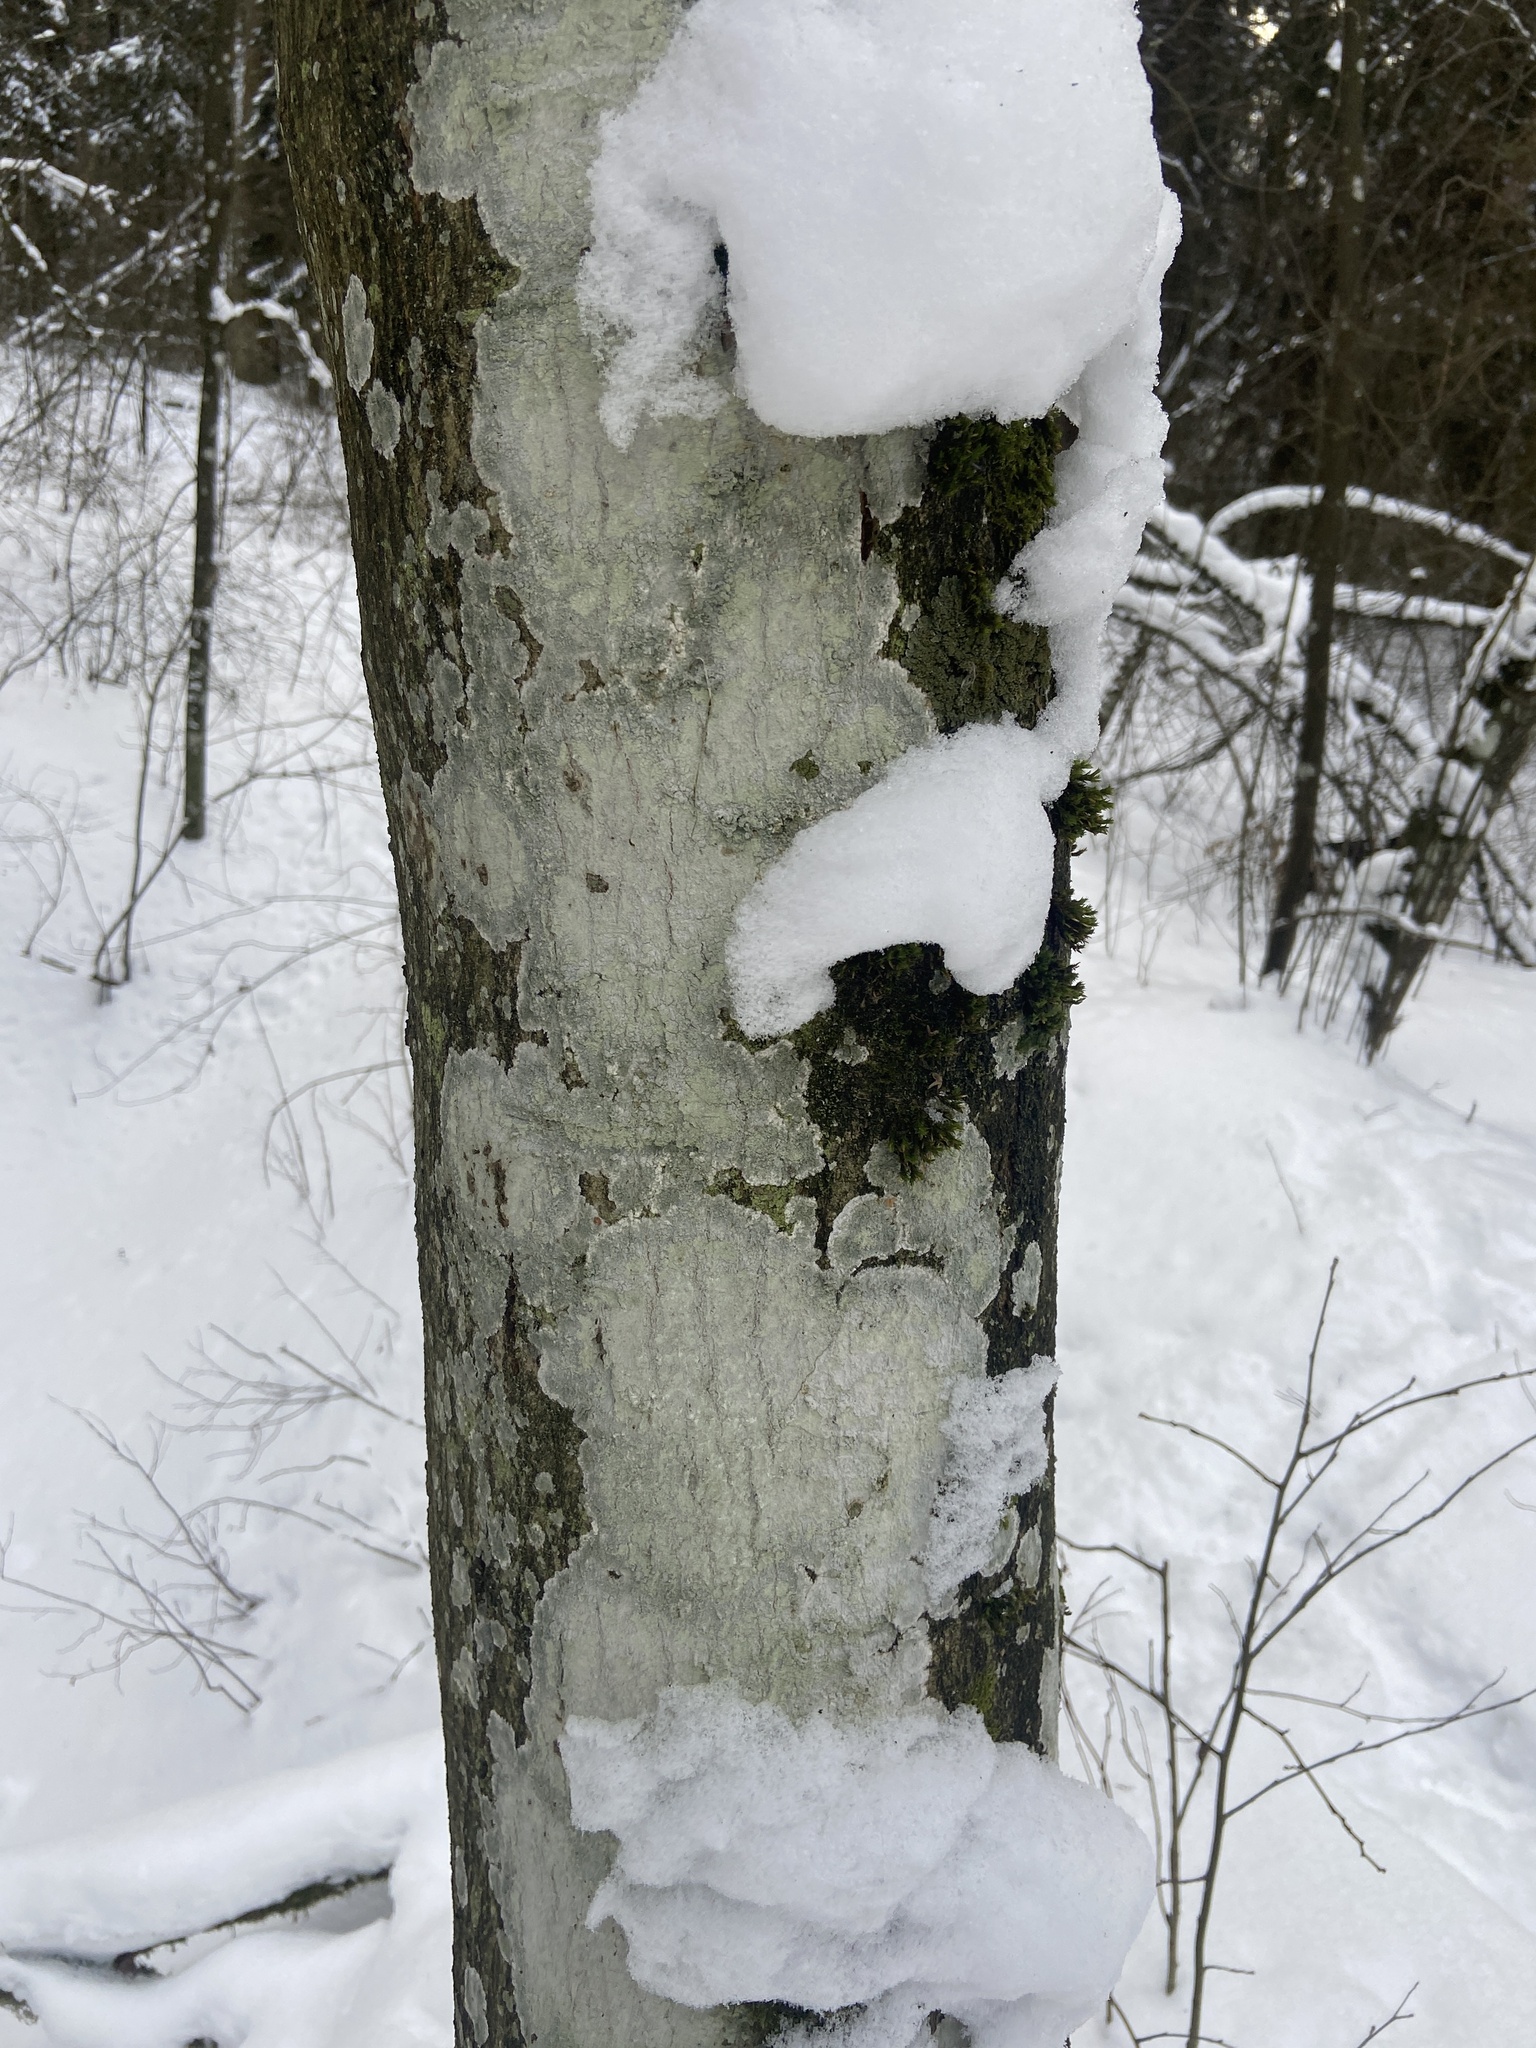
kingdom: Fungi
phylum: Ascomycota
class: Lecanoromycetes
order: Ostropales
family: Phlyctidaceae
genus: Phlyctis
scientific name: Phlyctis argena
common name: Whitewash lichen
